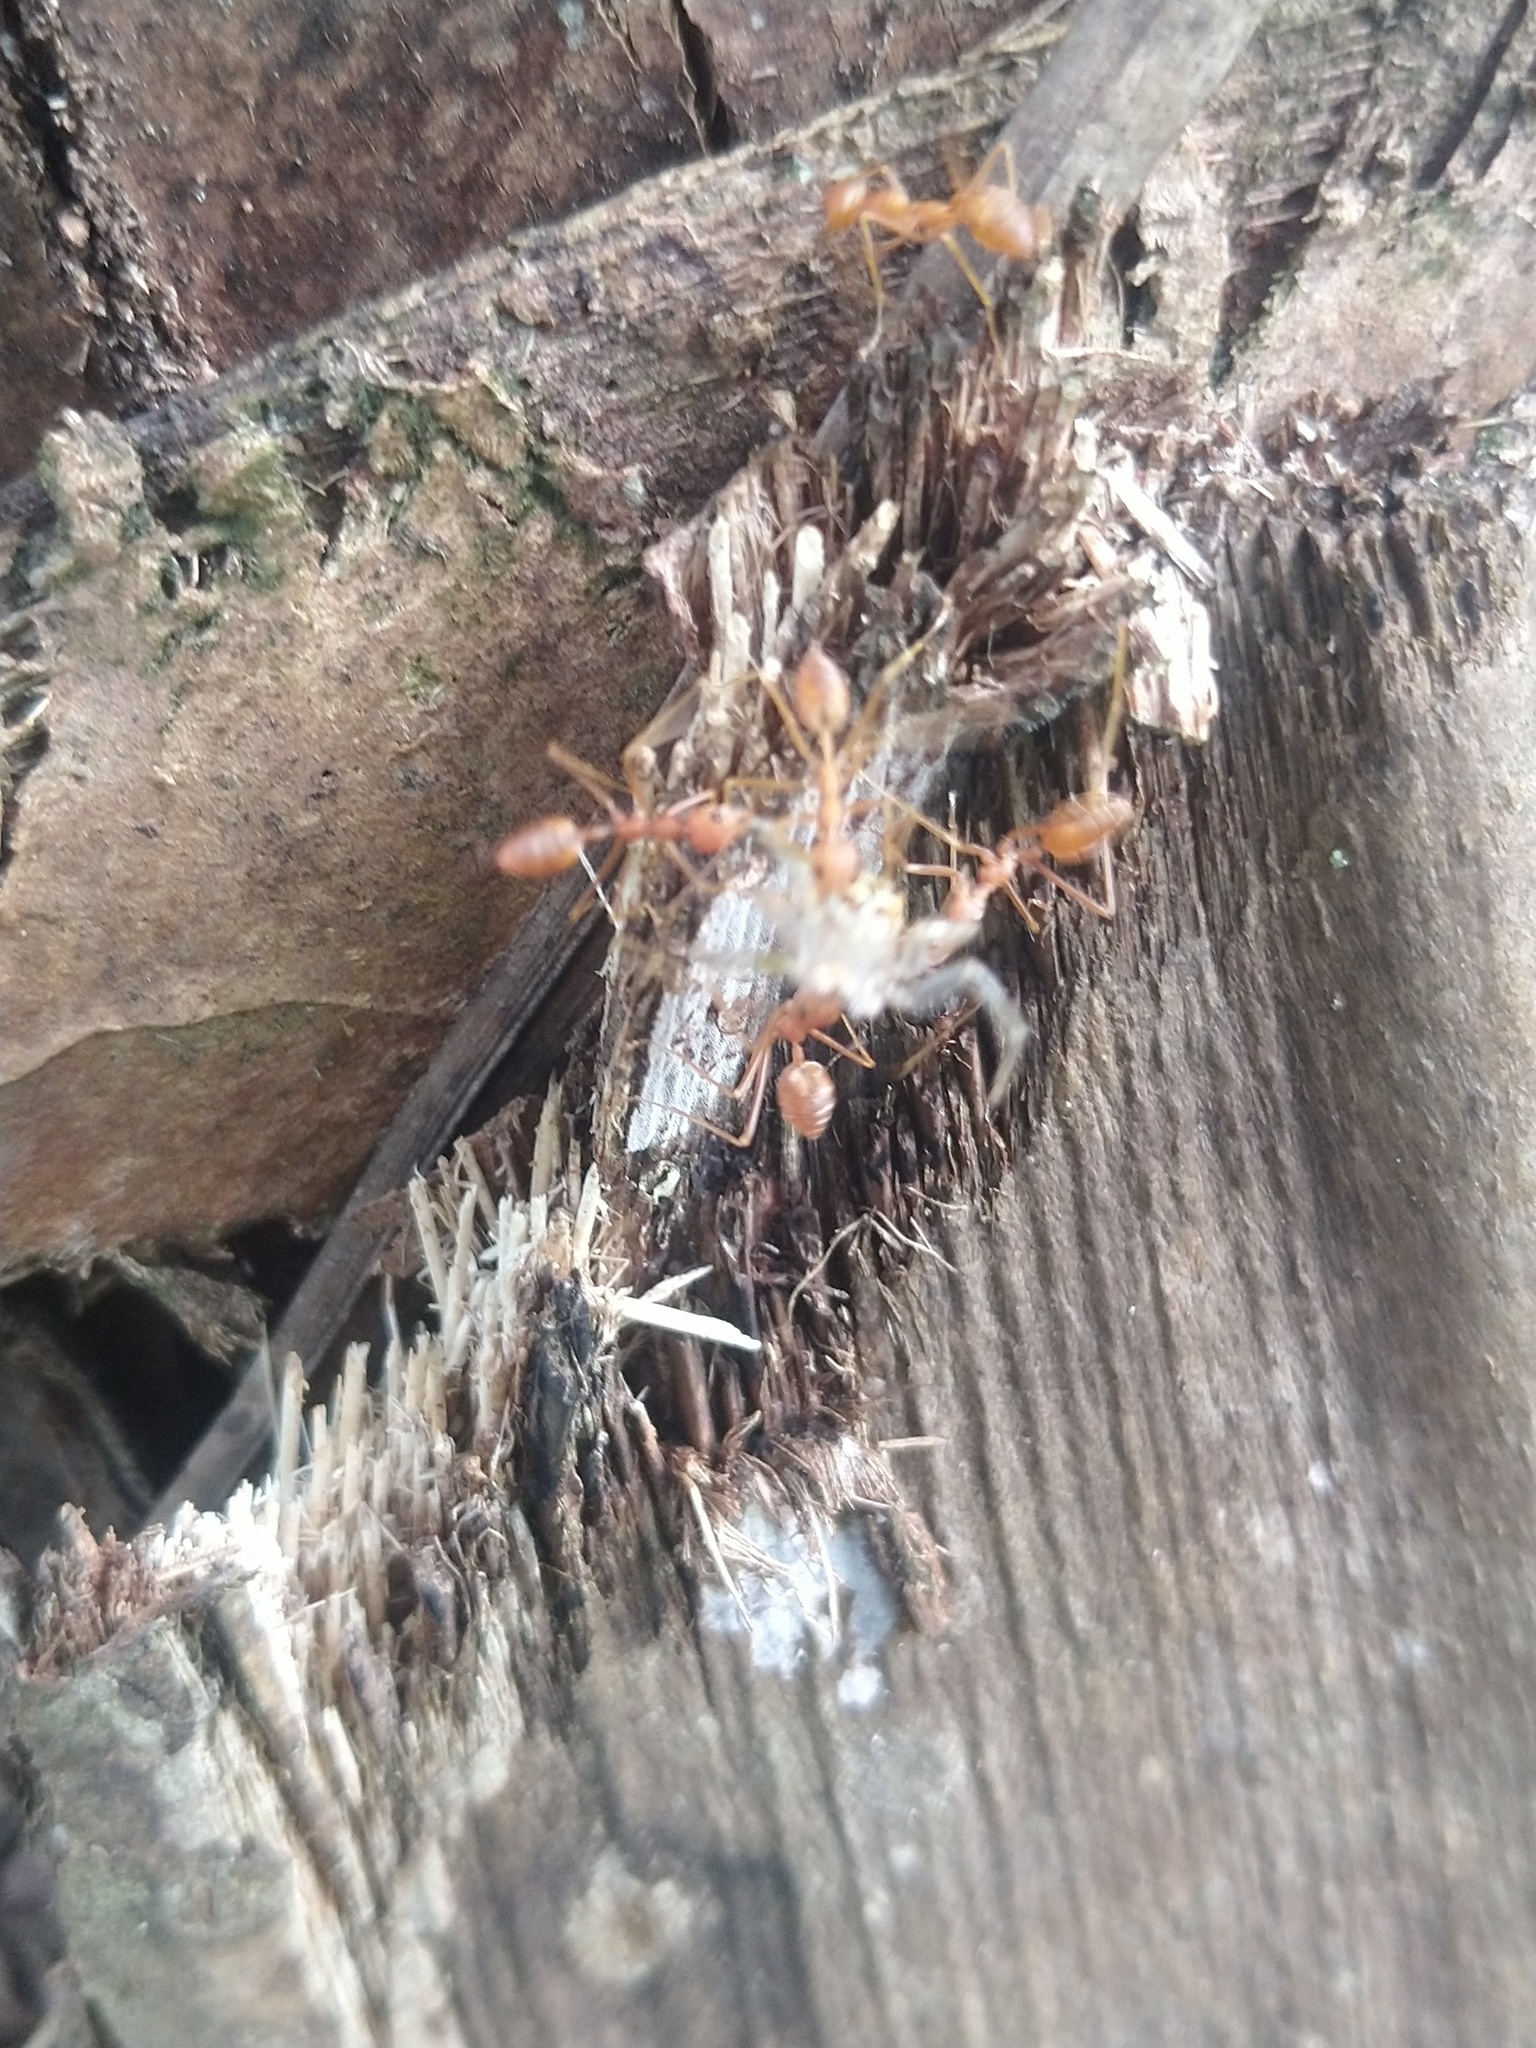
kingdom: Animalia
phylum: Arthropoda
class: Insecta
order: Hymenoptera
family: Formicidae
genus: Oecophylla
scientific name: Oecophylla smaragdina
